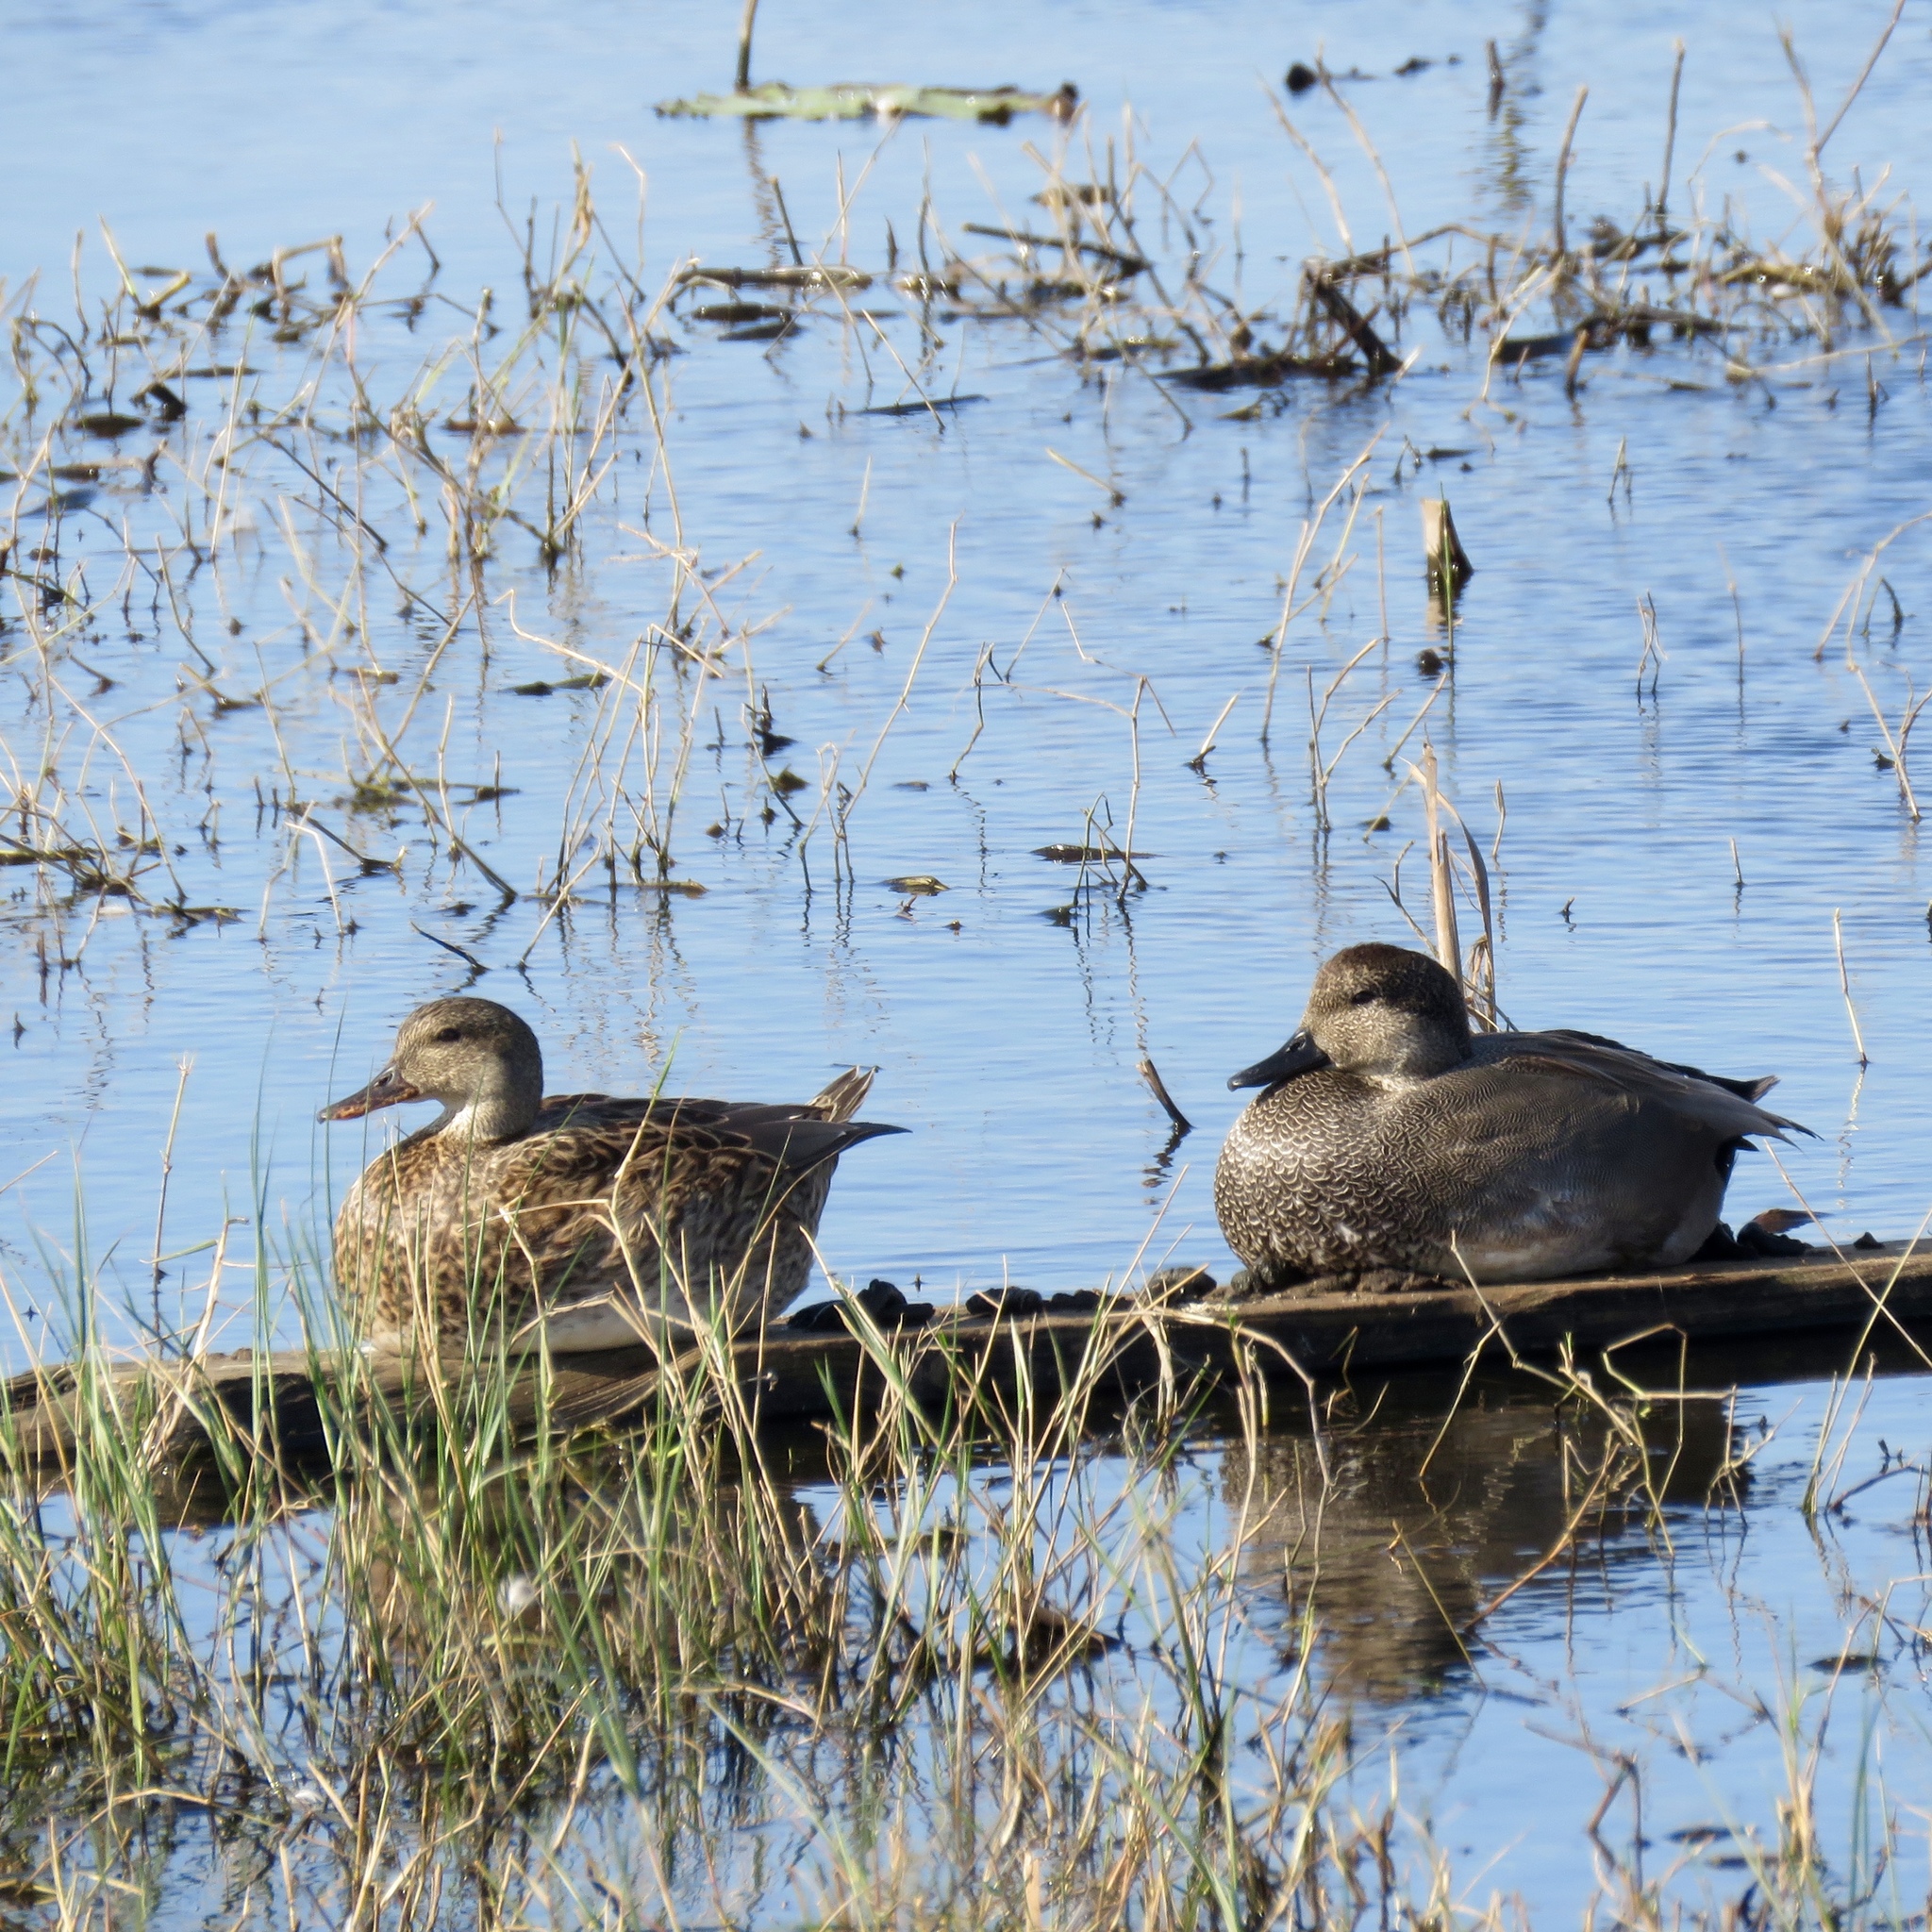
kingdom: Animalia
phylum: Chordata
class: Aves
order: Anseriformes
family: Anatidae
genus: Mareca
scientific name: Mareca strepera
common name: Gadwall
